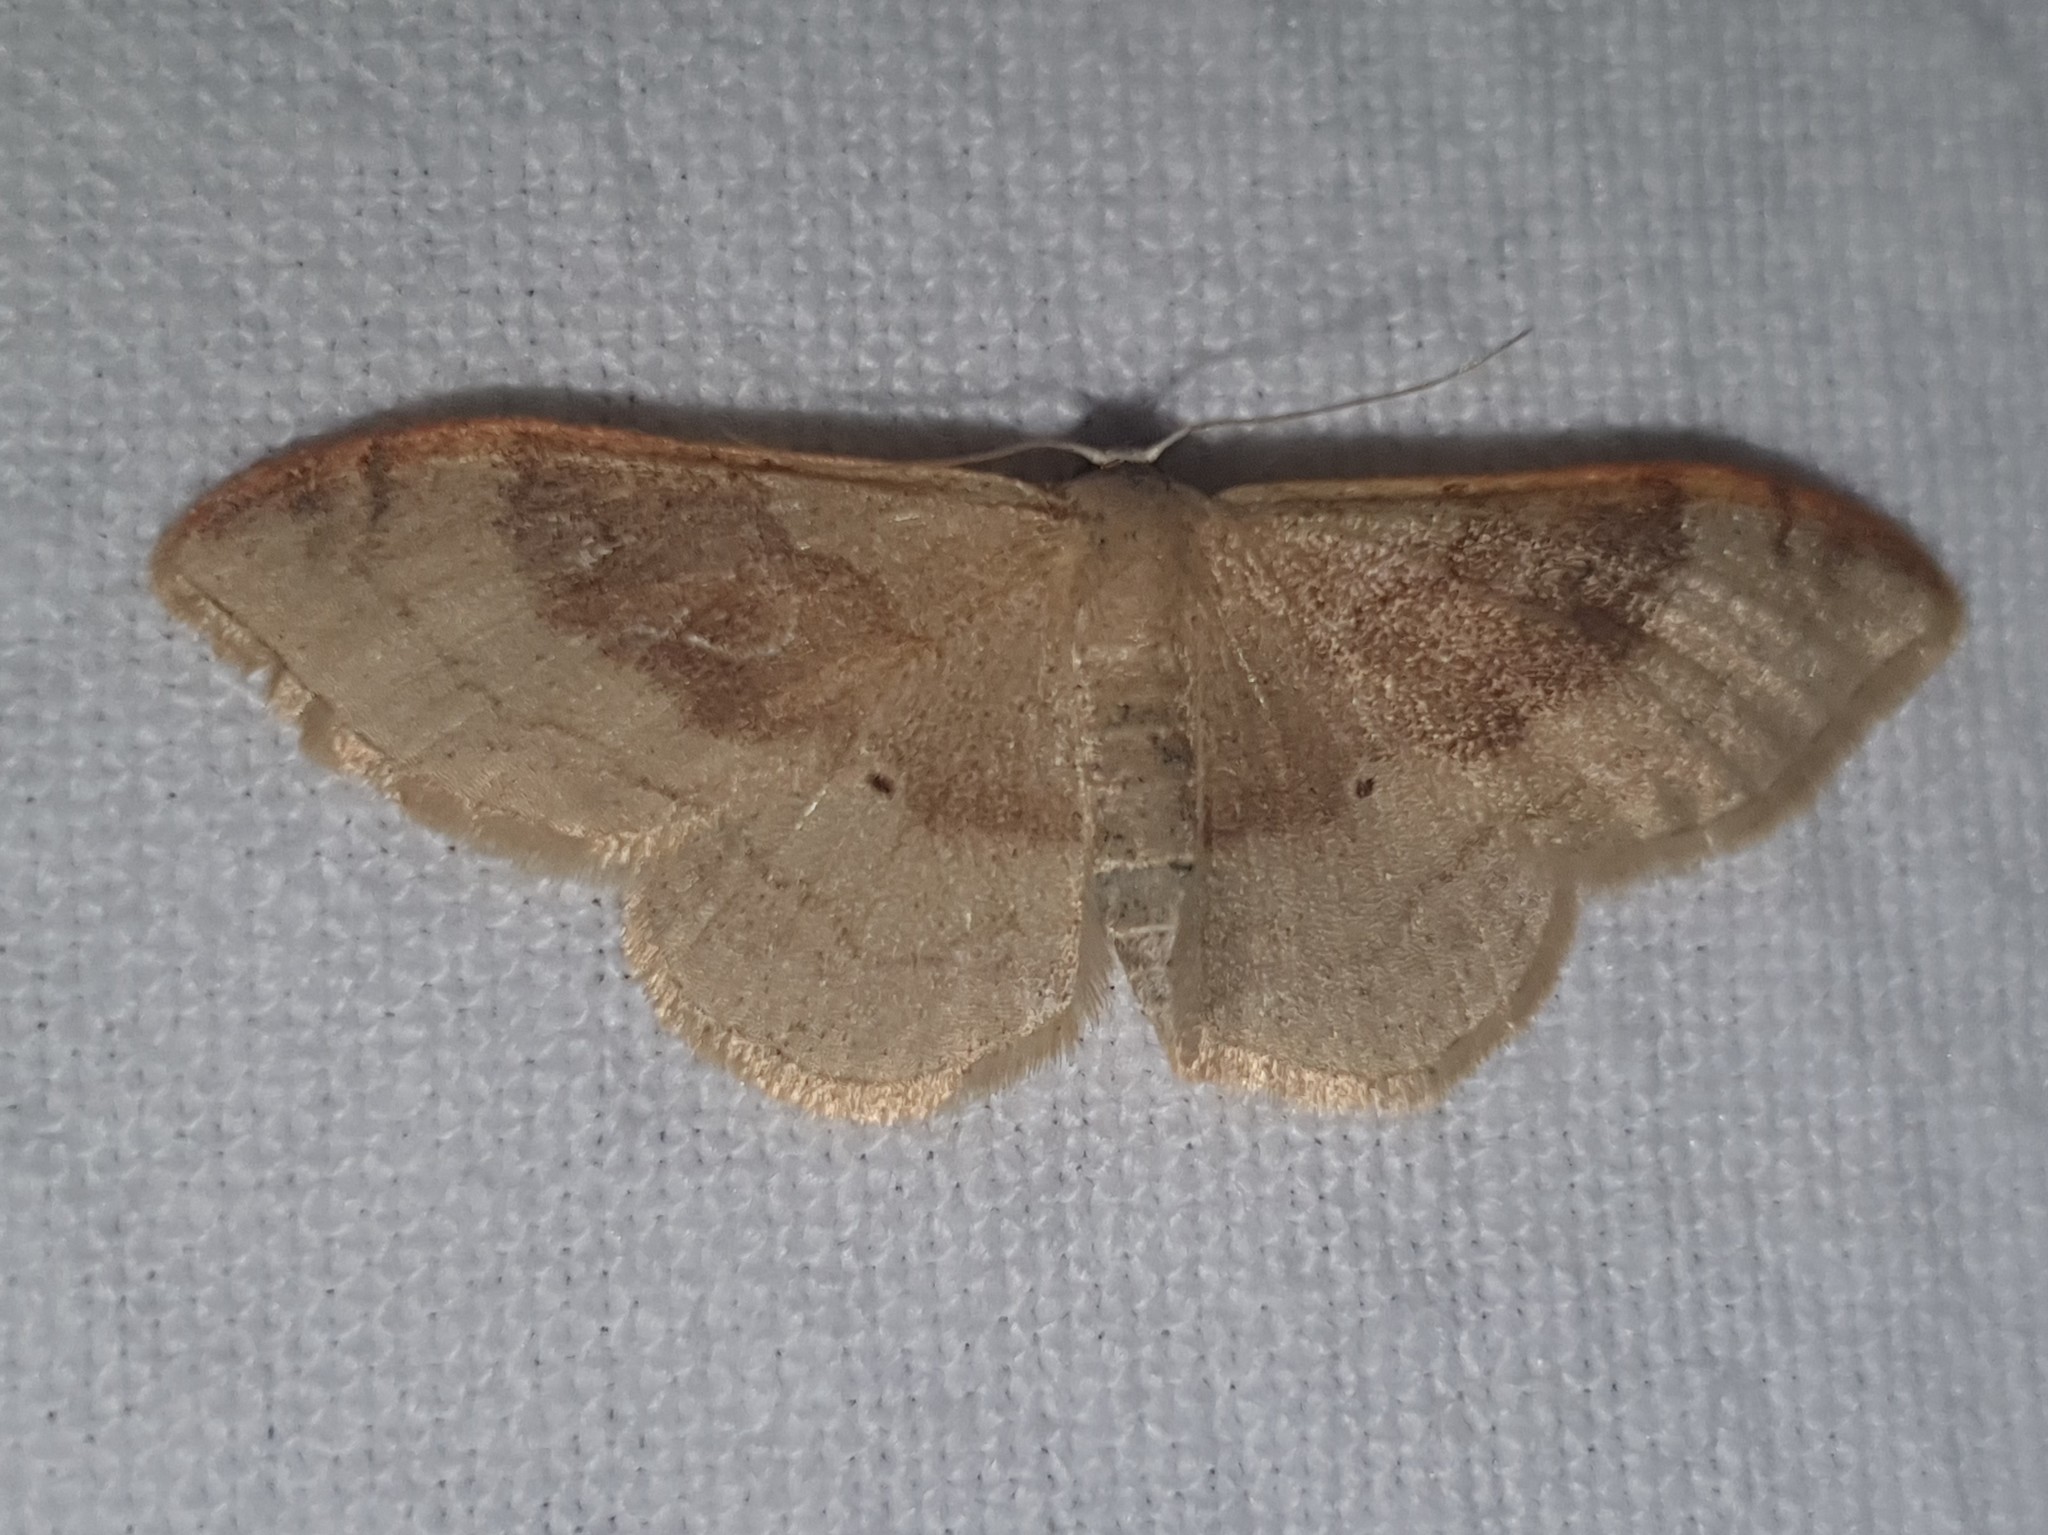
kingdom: Animalia
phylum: Arthropoda
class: Insecta
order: Lepidoptera
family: Geometridae
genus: Idaea
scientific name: Idaea degeneraria
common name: Portland ribbon wave
